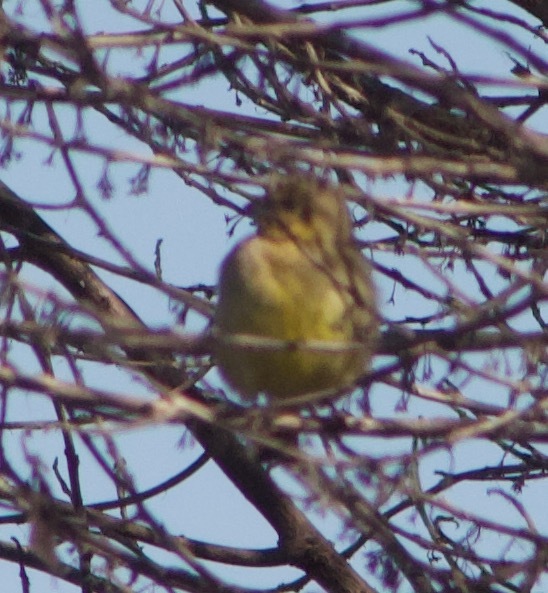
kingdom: Animalia
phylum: Chordata
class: Aves
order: Passeriformes
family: Thraupidae
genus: Sicalis
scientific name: Sicalis luteola
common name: Grassland yellow-finch
